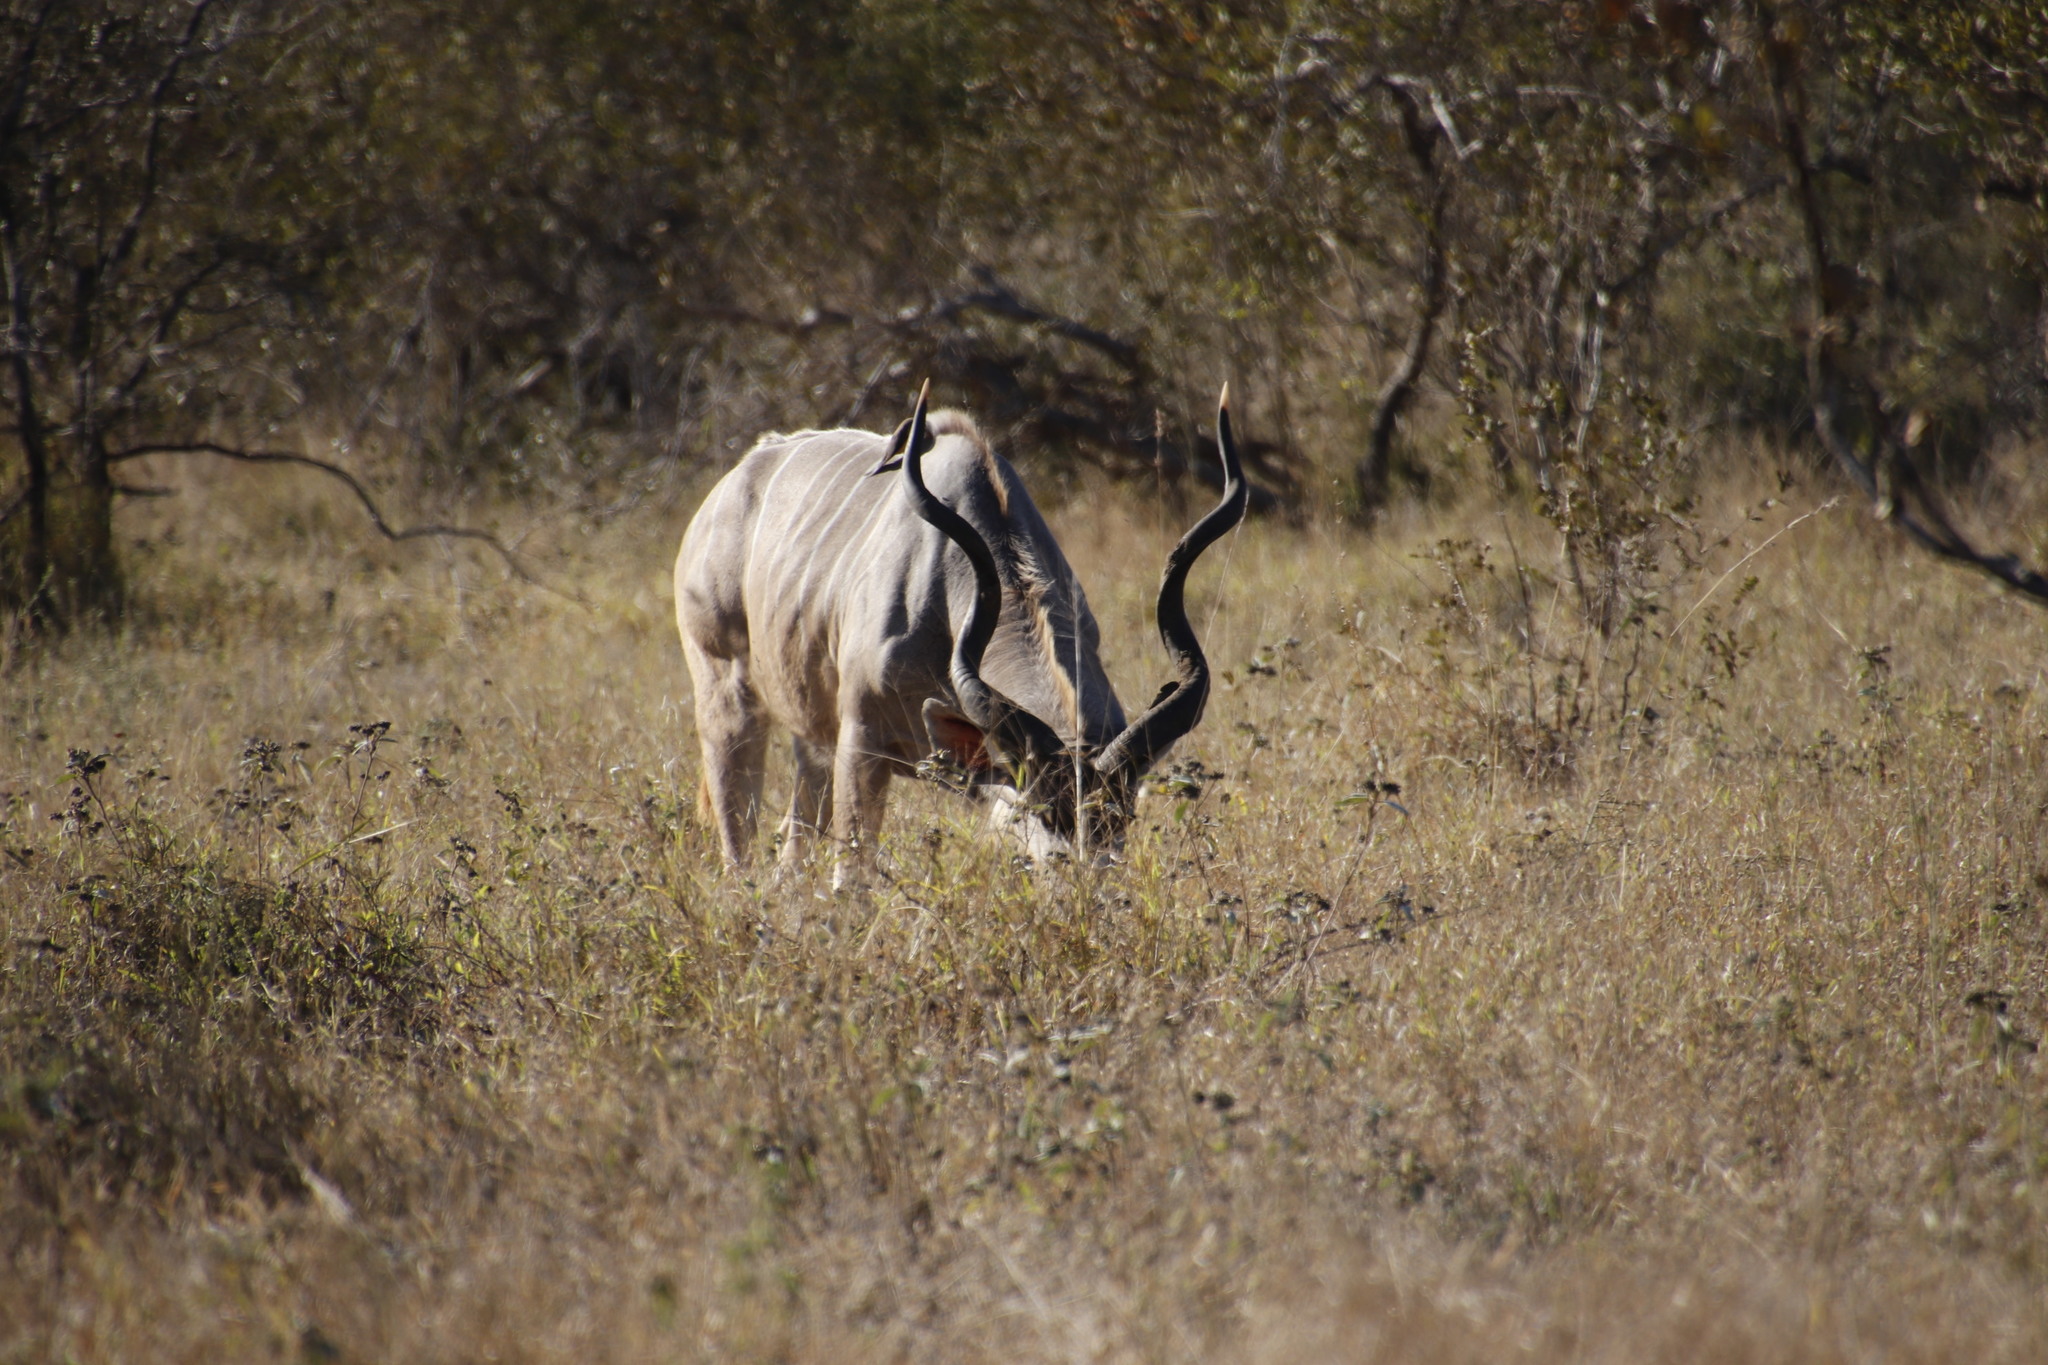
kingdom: Animalia
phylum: Chordata
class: Mammalia
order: Artiodactyla
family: Bovidae
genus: Tragelaphus
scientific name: Tragelaphus strepsiceros
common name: Greater kudu
